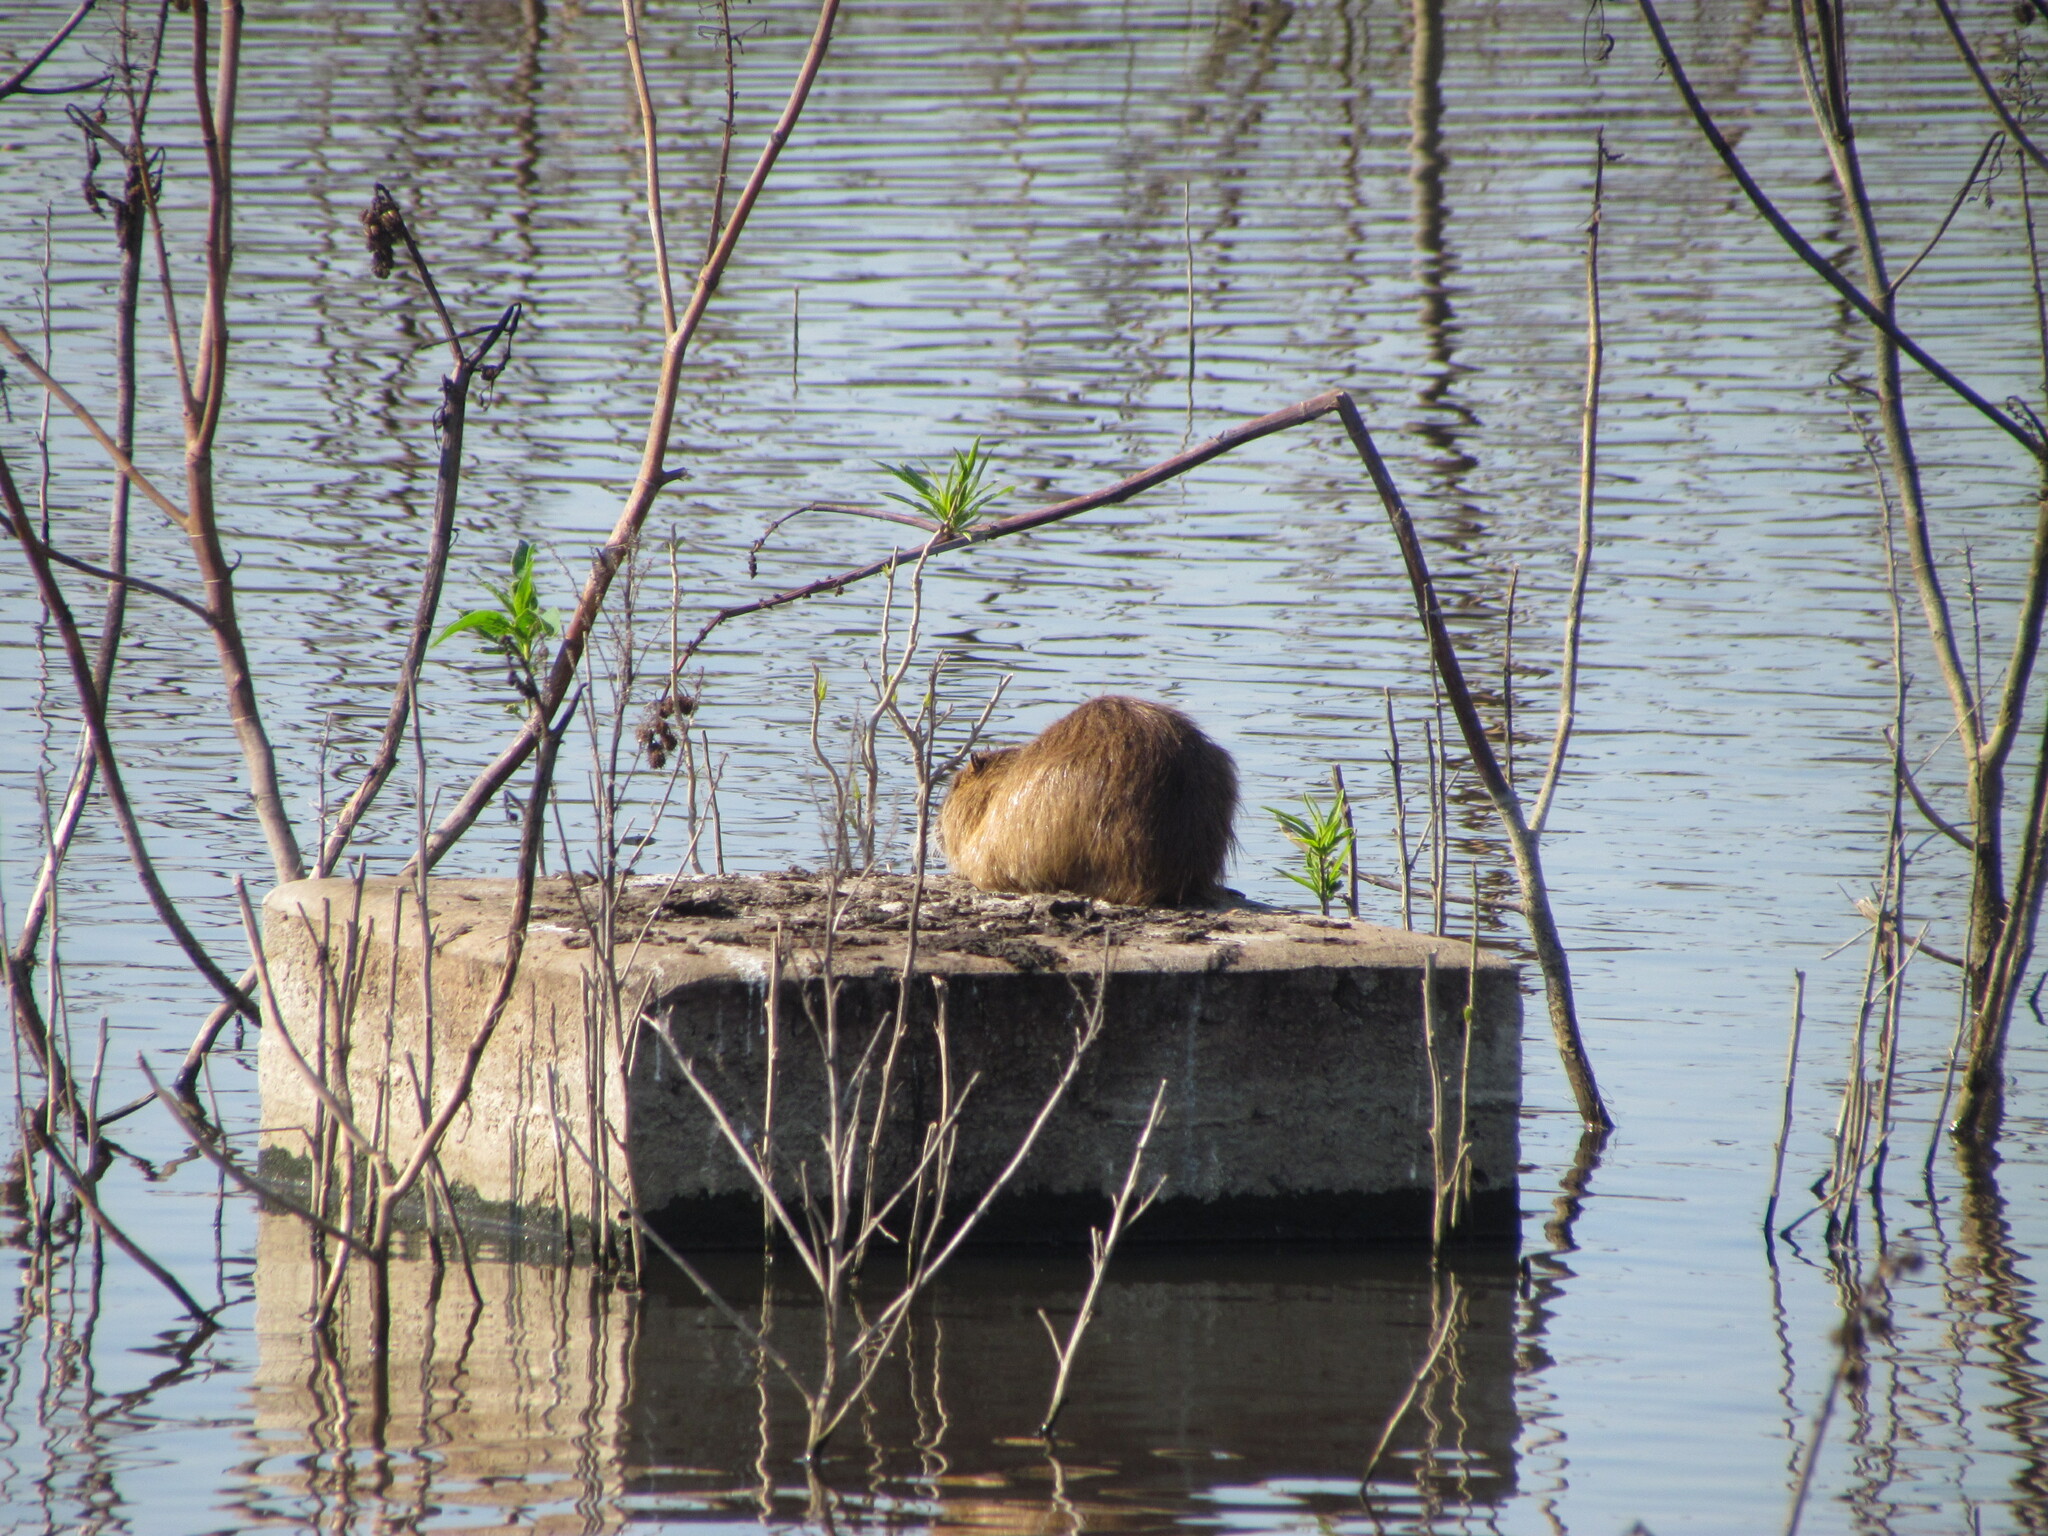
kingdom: Animalia
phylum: Chordata
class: Mammalia
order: Rodentia
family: Myocastoridae
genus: Myocastor
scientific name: Myocastor coypus
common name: Coypu
